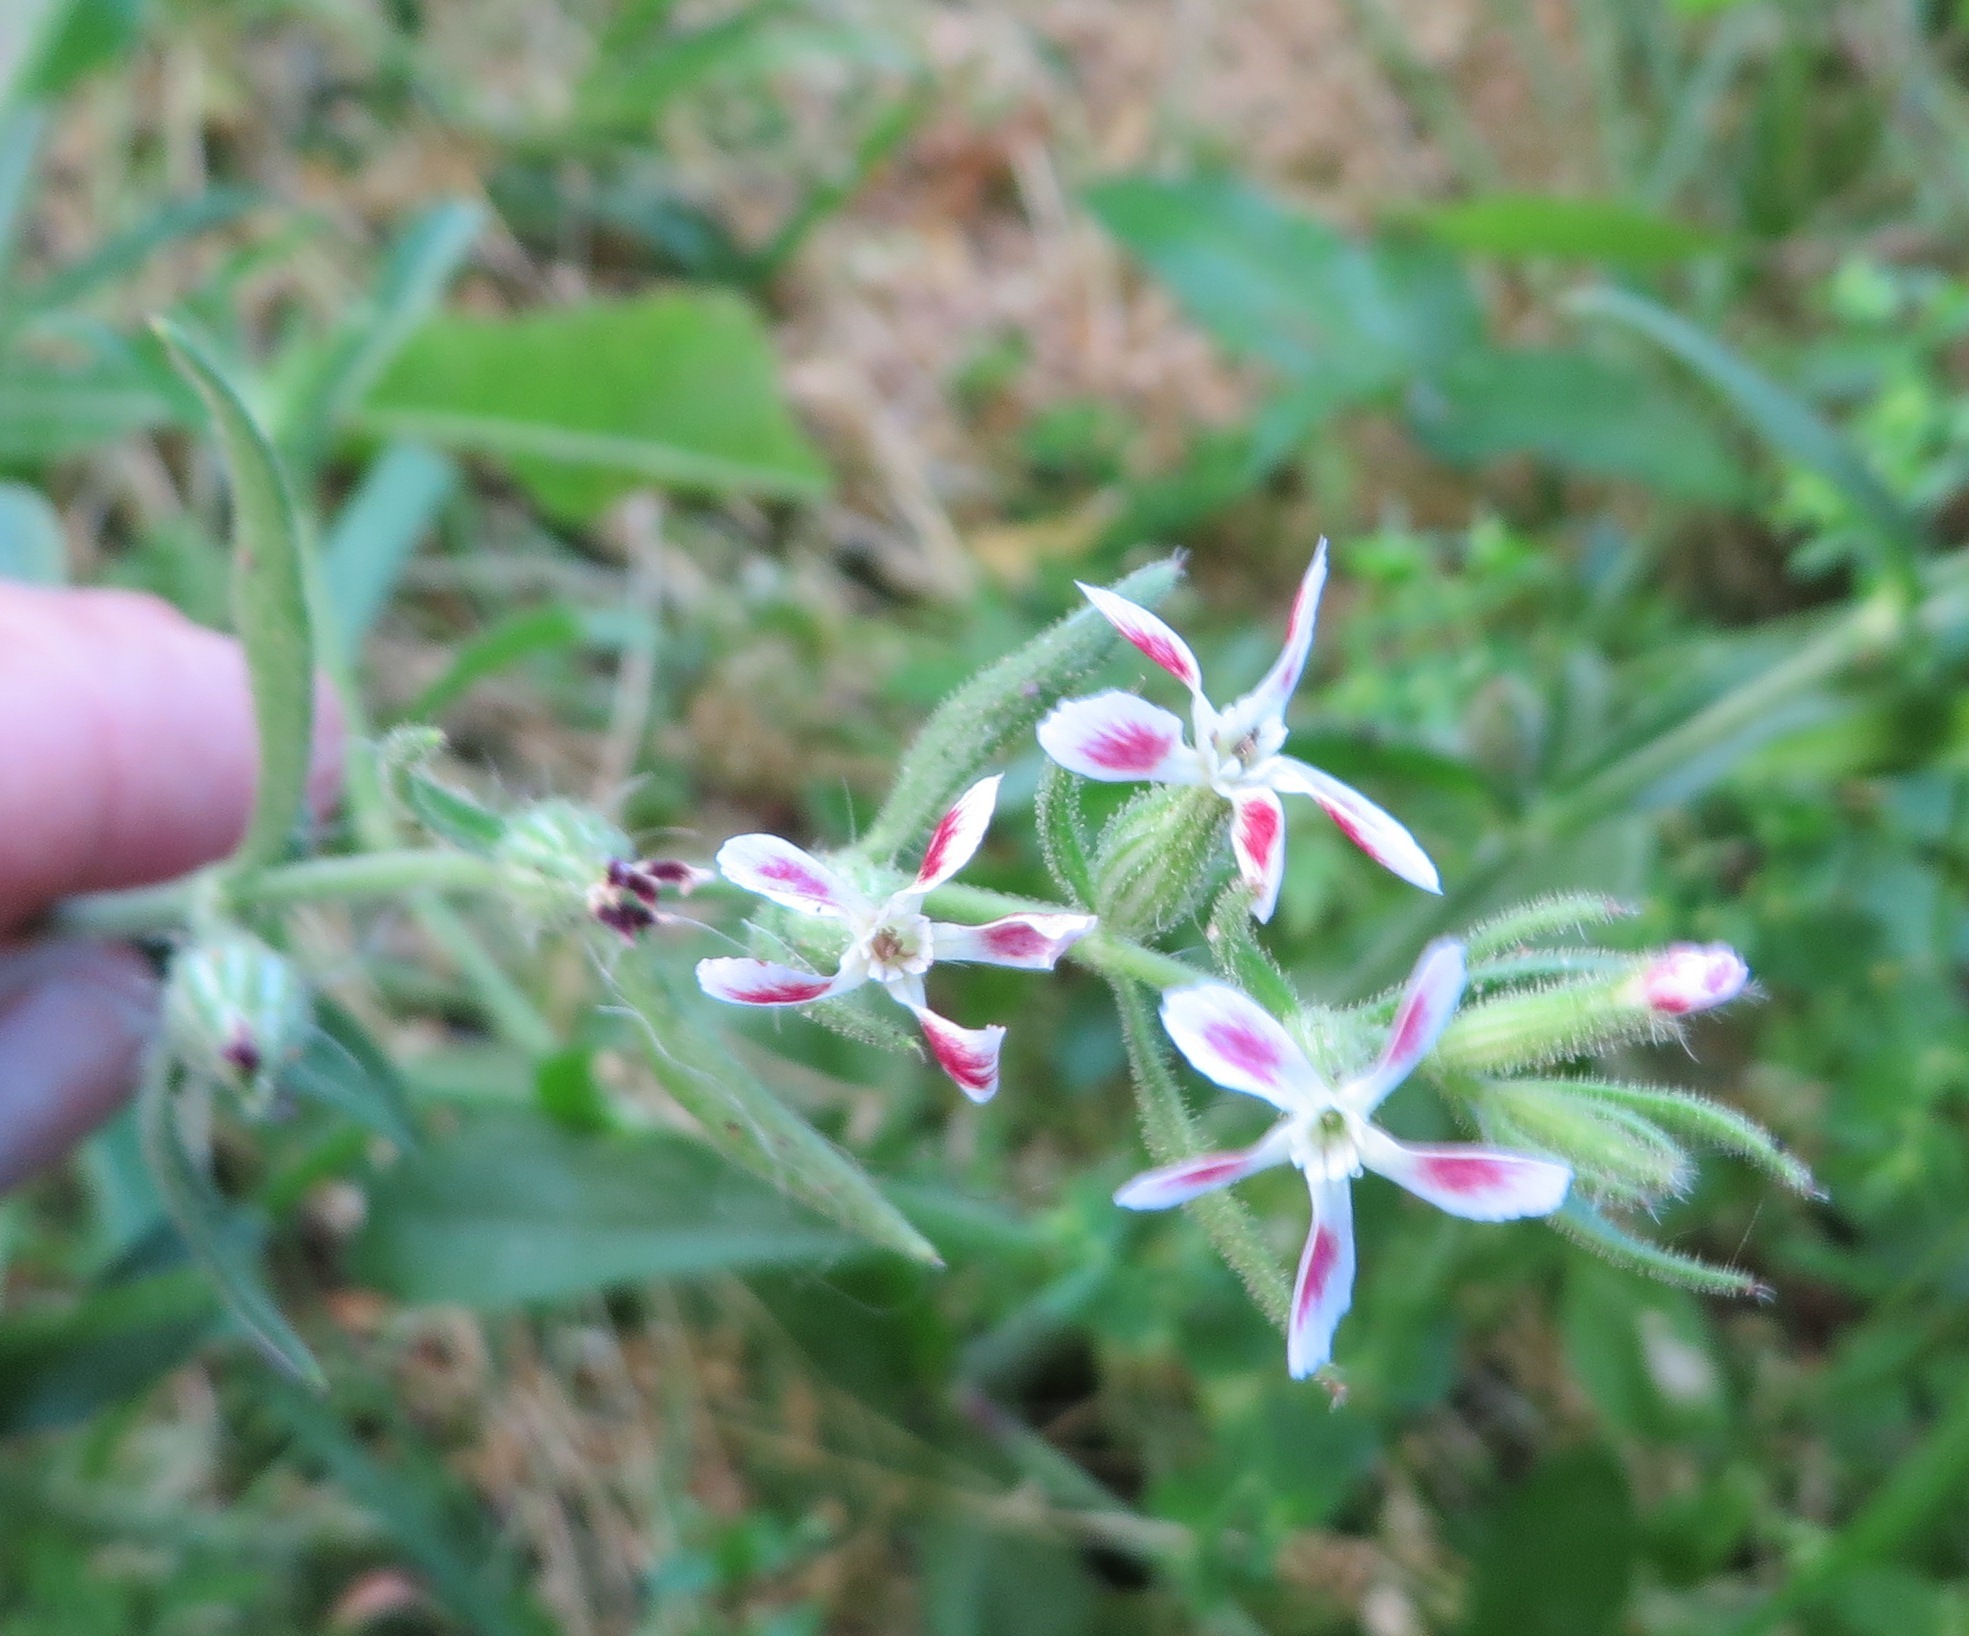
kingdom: Plantae
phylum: Tracheophyta
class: Magnoliopsida
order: Caryophyllales
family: Caryophyllaceae
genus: Silene
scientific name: Silene gallica
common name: Small-flowered catchfly
